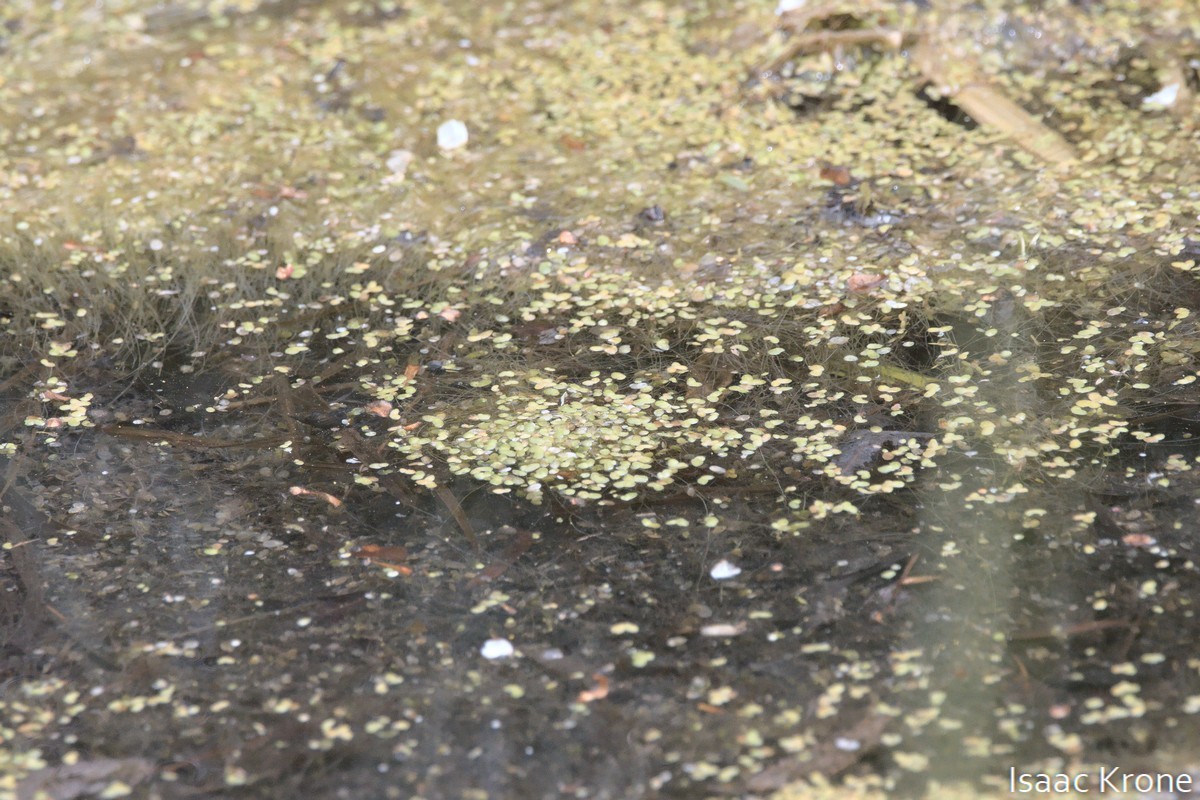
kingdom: Plantae
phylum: Tracheophyta
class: Liliopsida
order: Alismatales
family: Araceae
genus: Lemna
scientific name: Lemna minor
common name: Common duckweed
